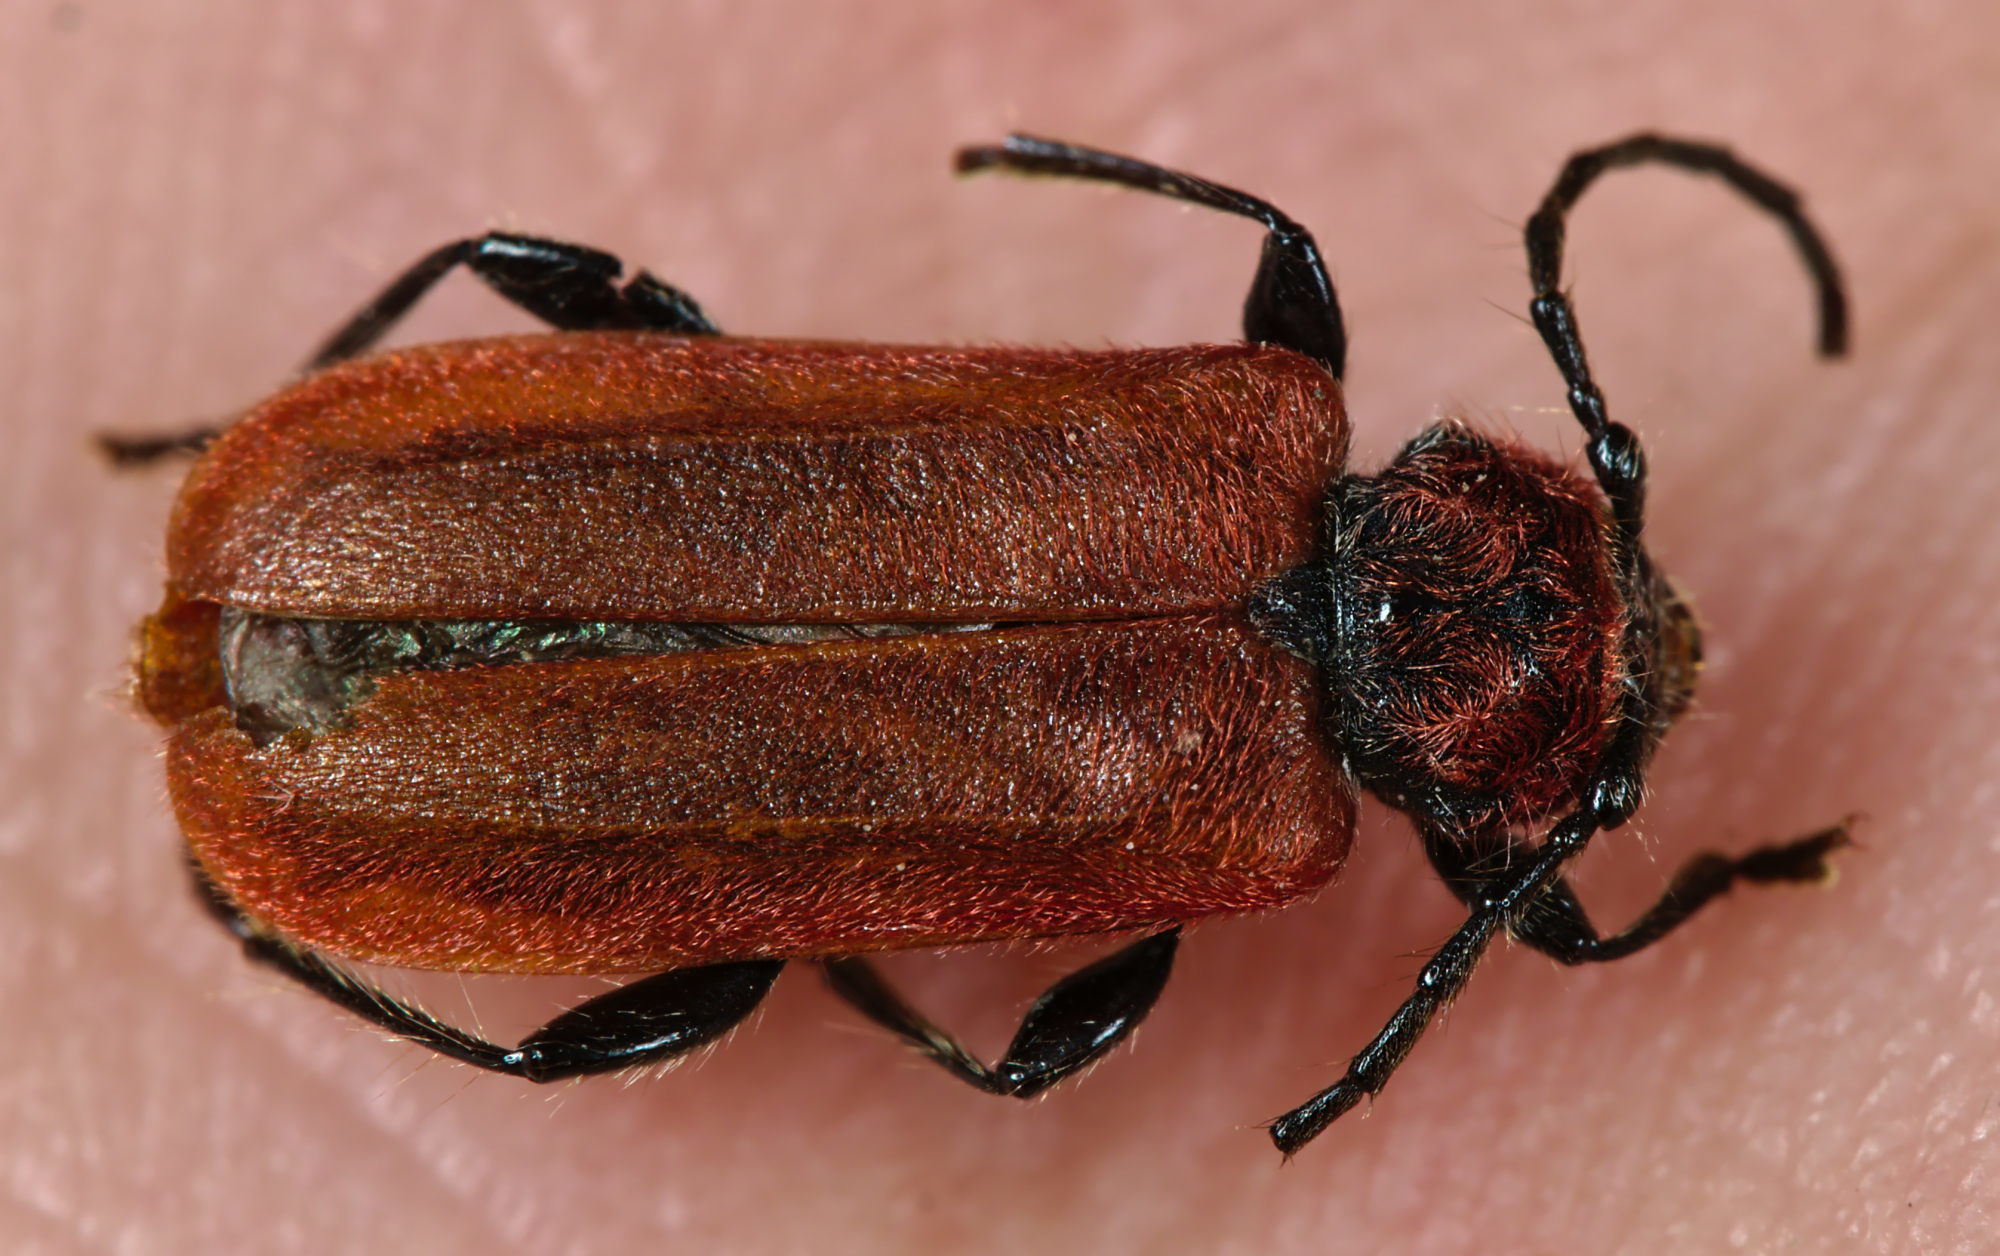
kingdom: Animalia
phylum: Arthropoda
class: Insecta
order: Coleoptera
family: Cerambycidae
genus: Pyrrhidium
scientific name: Pyrrhidium sanguineum
